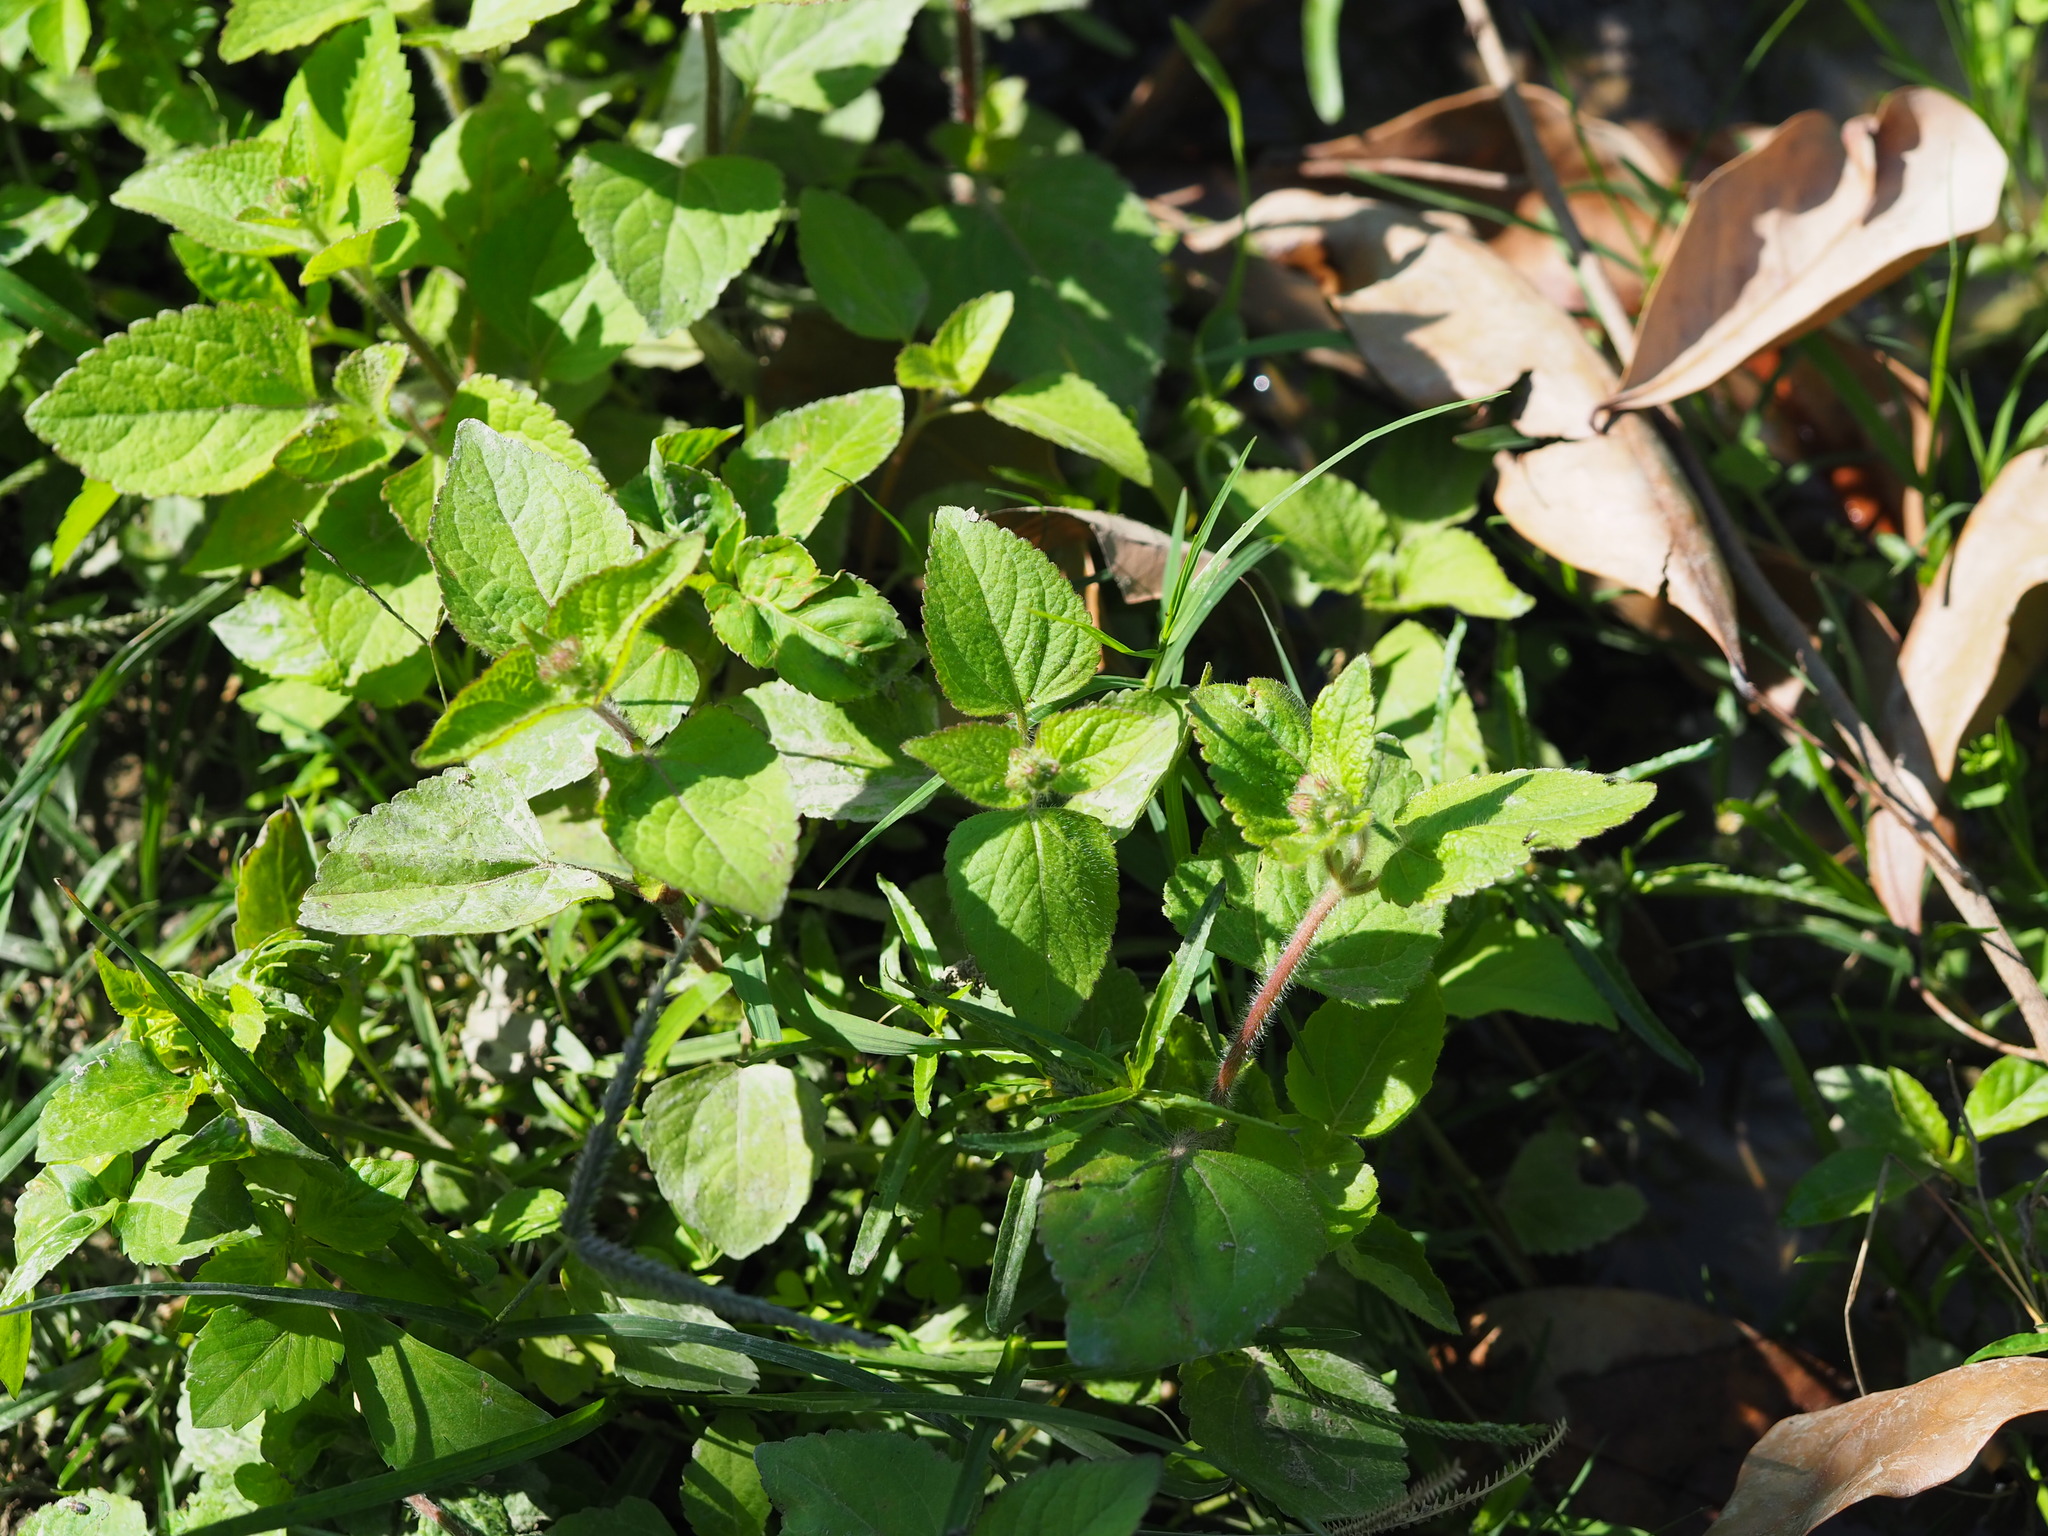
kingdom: Plantae
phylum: Tracheophyta
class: Magnoliopsida
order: Asterales
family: Asteraceae
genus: Ageratum
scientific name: Ageratum houstonianum
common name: Bluemink
